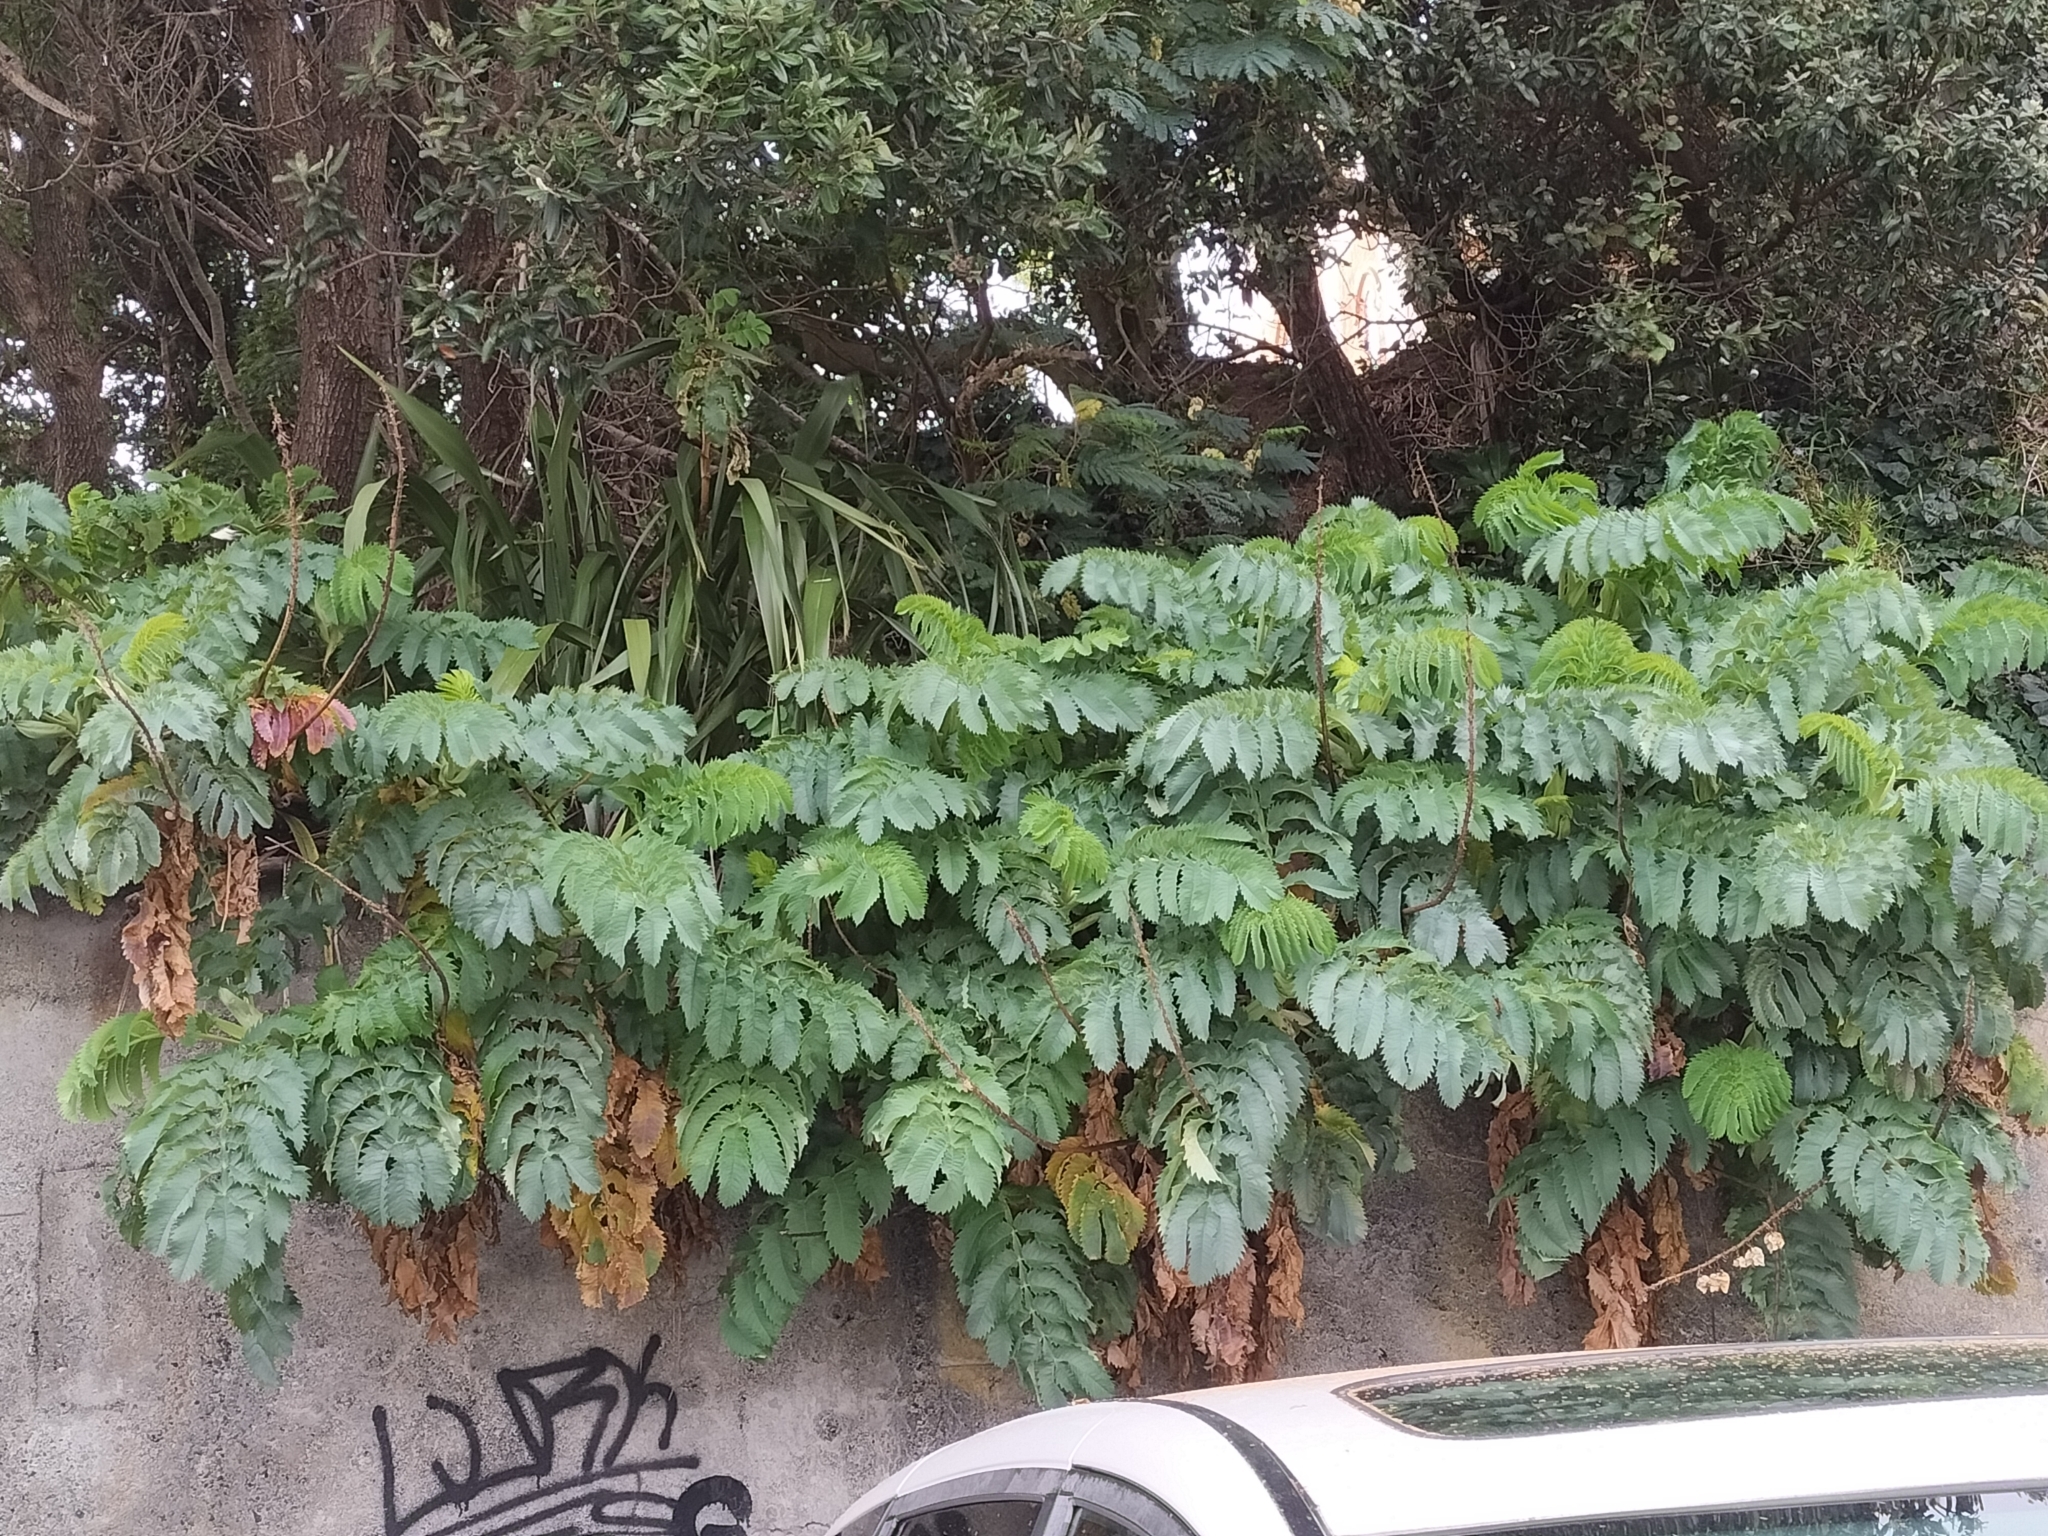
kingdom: Plantae
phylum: Tracheophyta
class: Magnoliopsida
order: Geraniales
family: Melianthaceae
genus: Melianthus
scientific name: Melianthus major
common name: Honey-flower
